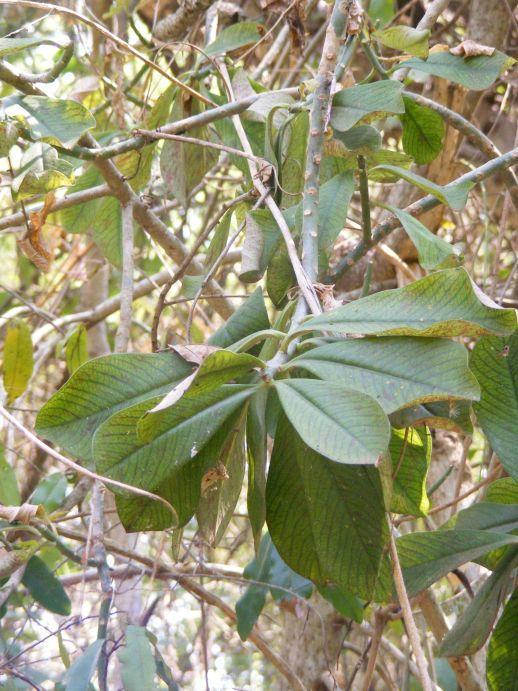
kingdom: Plantae
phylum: Tracheophyta
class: Magnoliopsida
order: Malpighiales
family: Euphorbiaceae
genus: Euphorbia
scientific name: Euphorbia cupularis
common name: Crying tree
